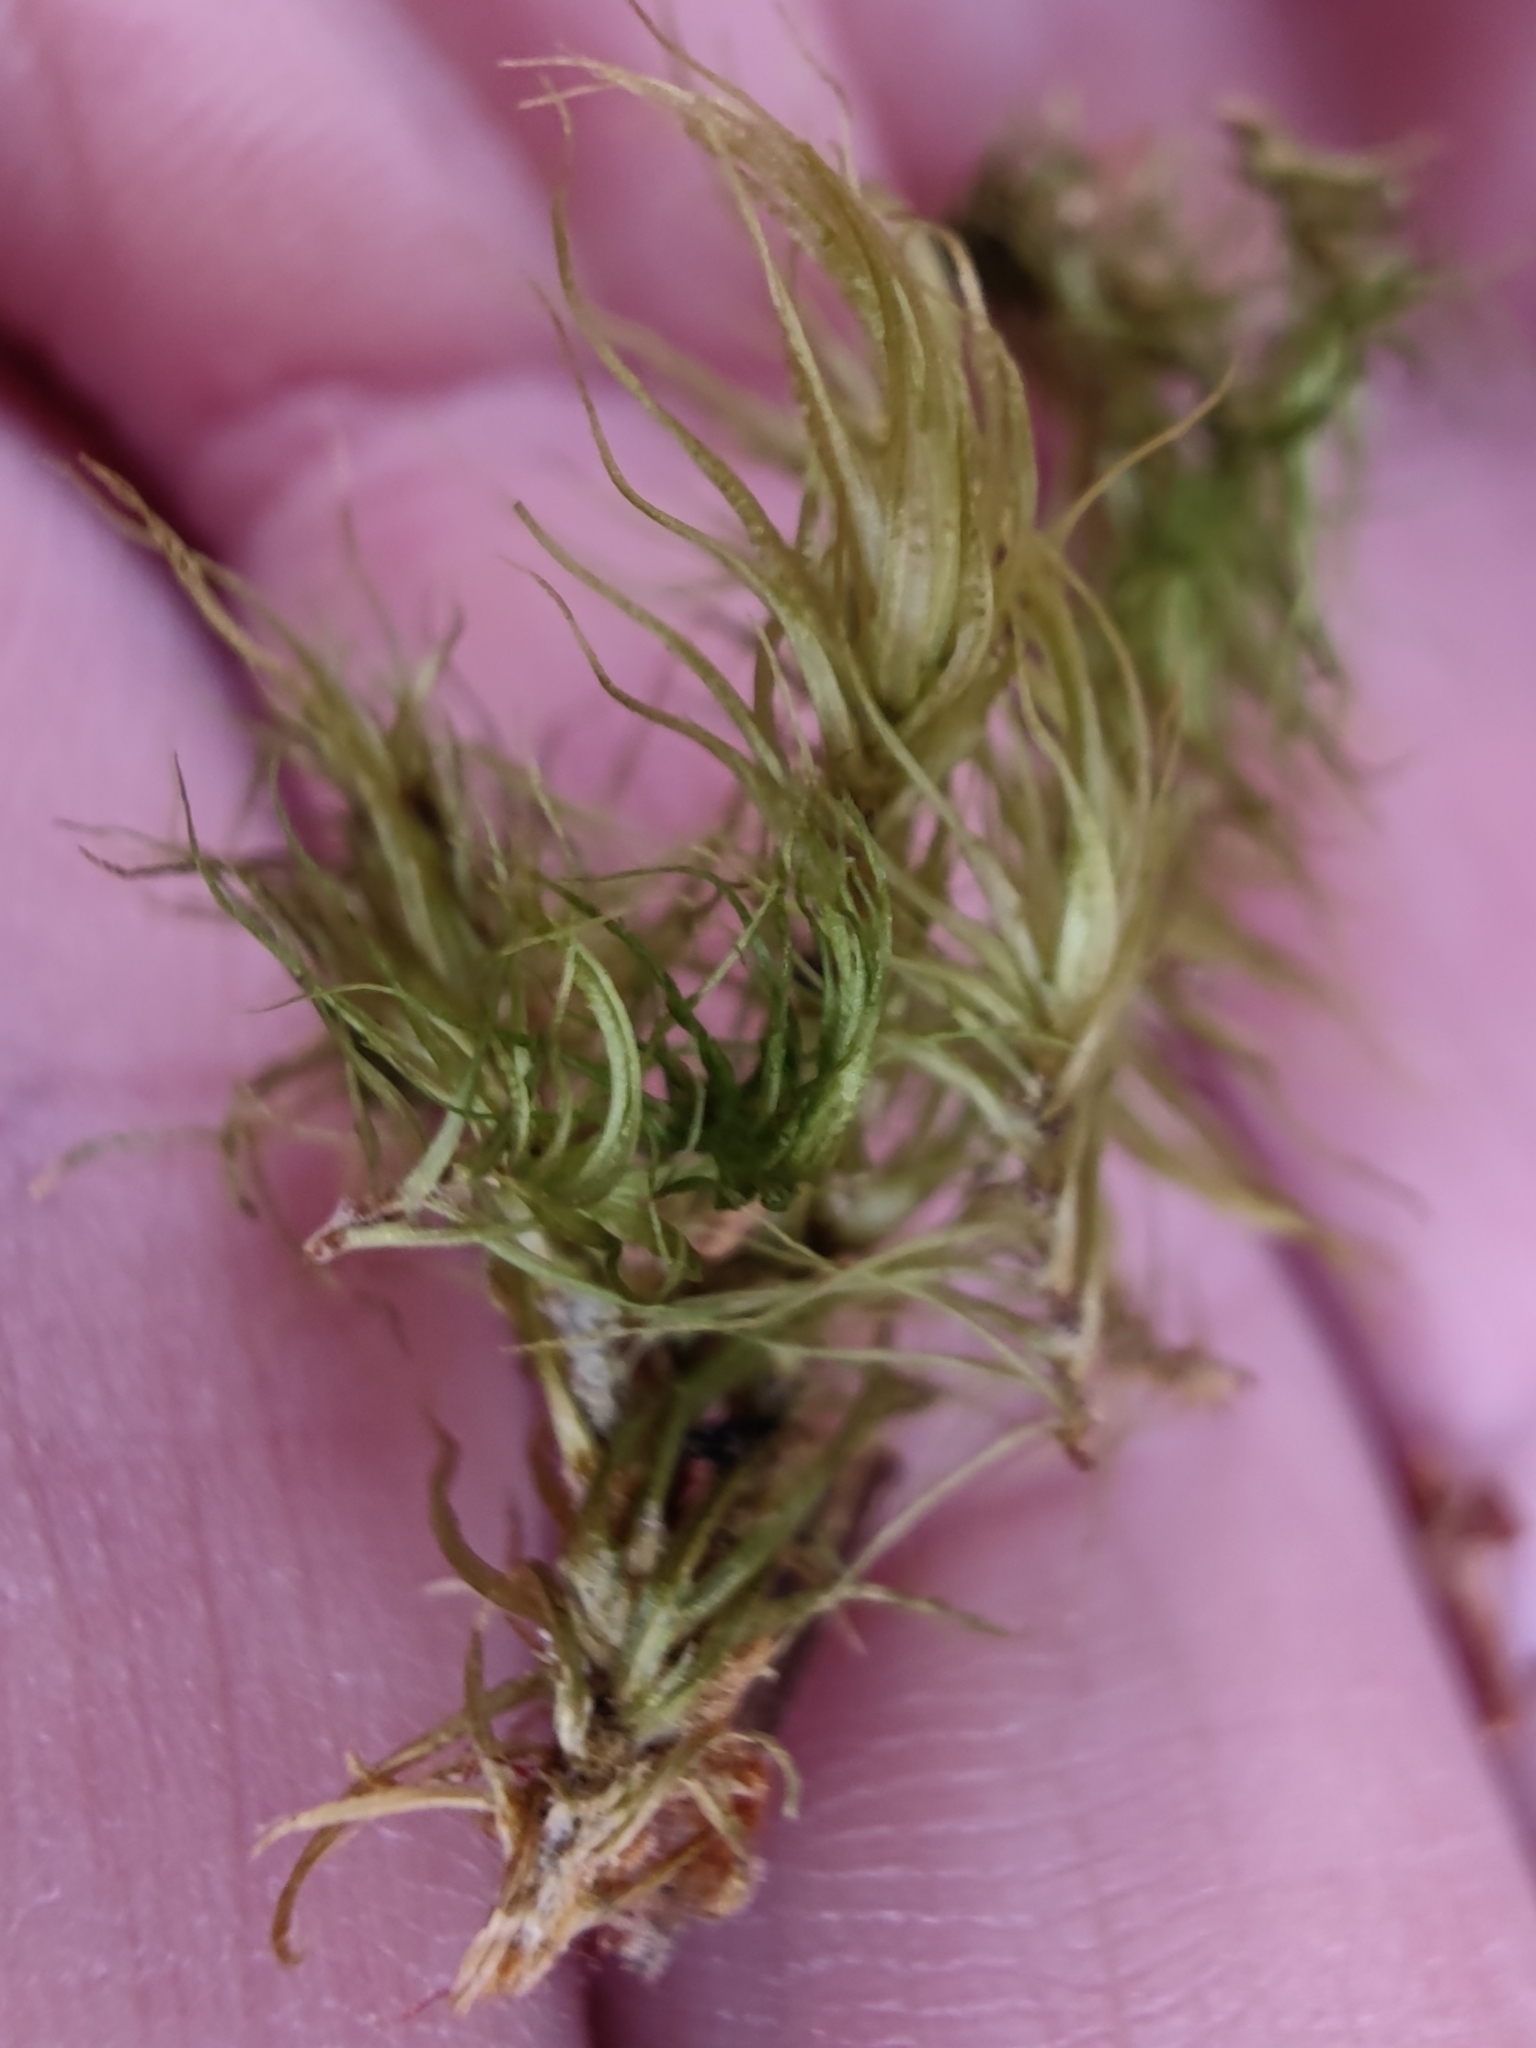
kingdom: Plantae
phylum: Bryophyta
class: Bryopsida
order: Dicranales
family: Dicranaceae
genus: Dicranum
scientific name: Dicranum scoparium
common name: Broom fork-moss
